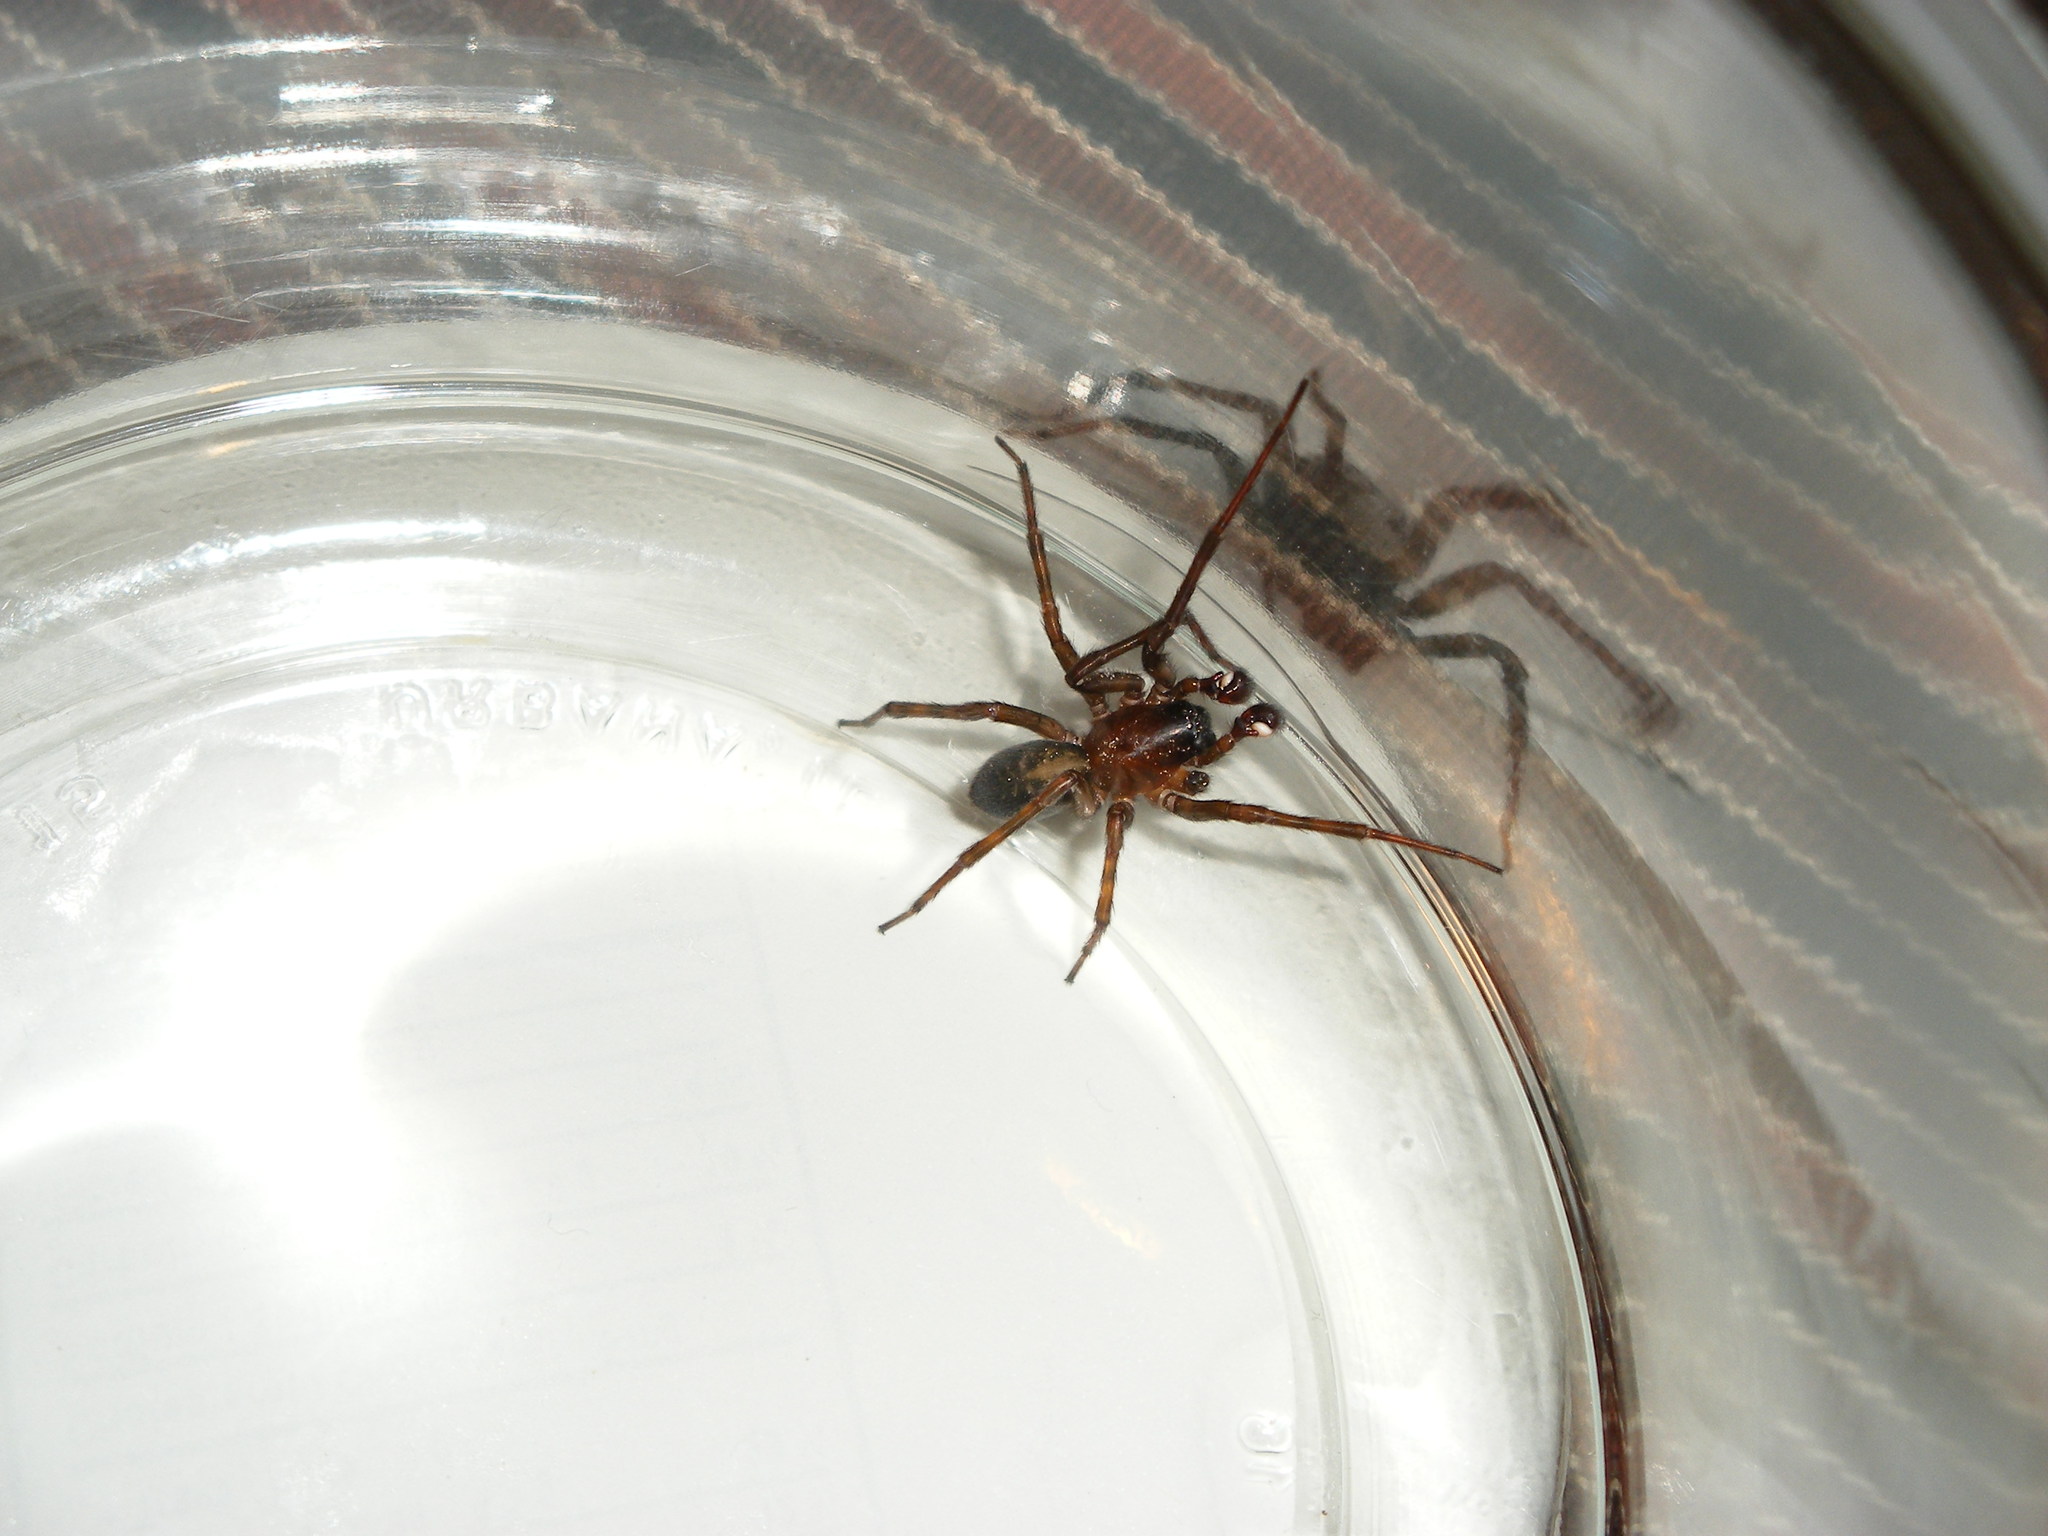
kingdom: Animalia
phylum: Arthropoda
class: Arachnida
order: Araneae
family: Amaurobiidae
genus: Amaurobius
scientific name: Amaurobius ferox
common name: Black laceweaver
